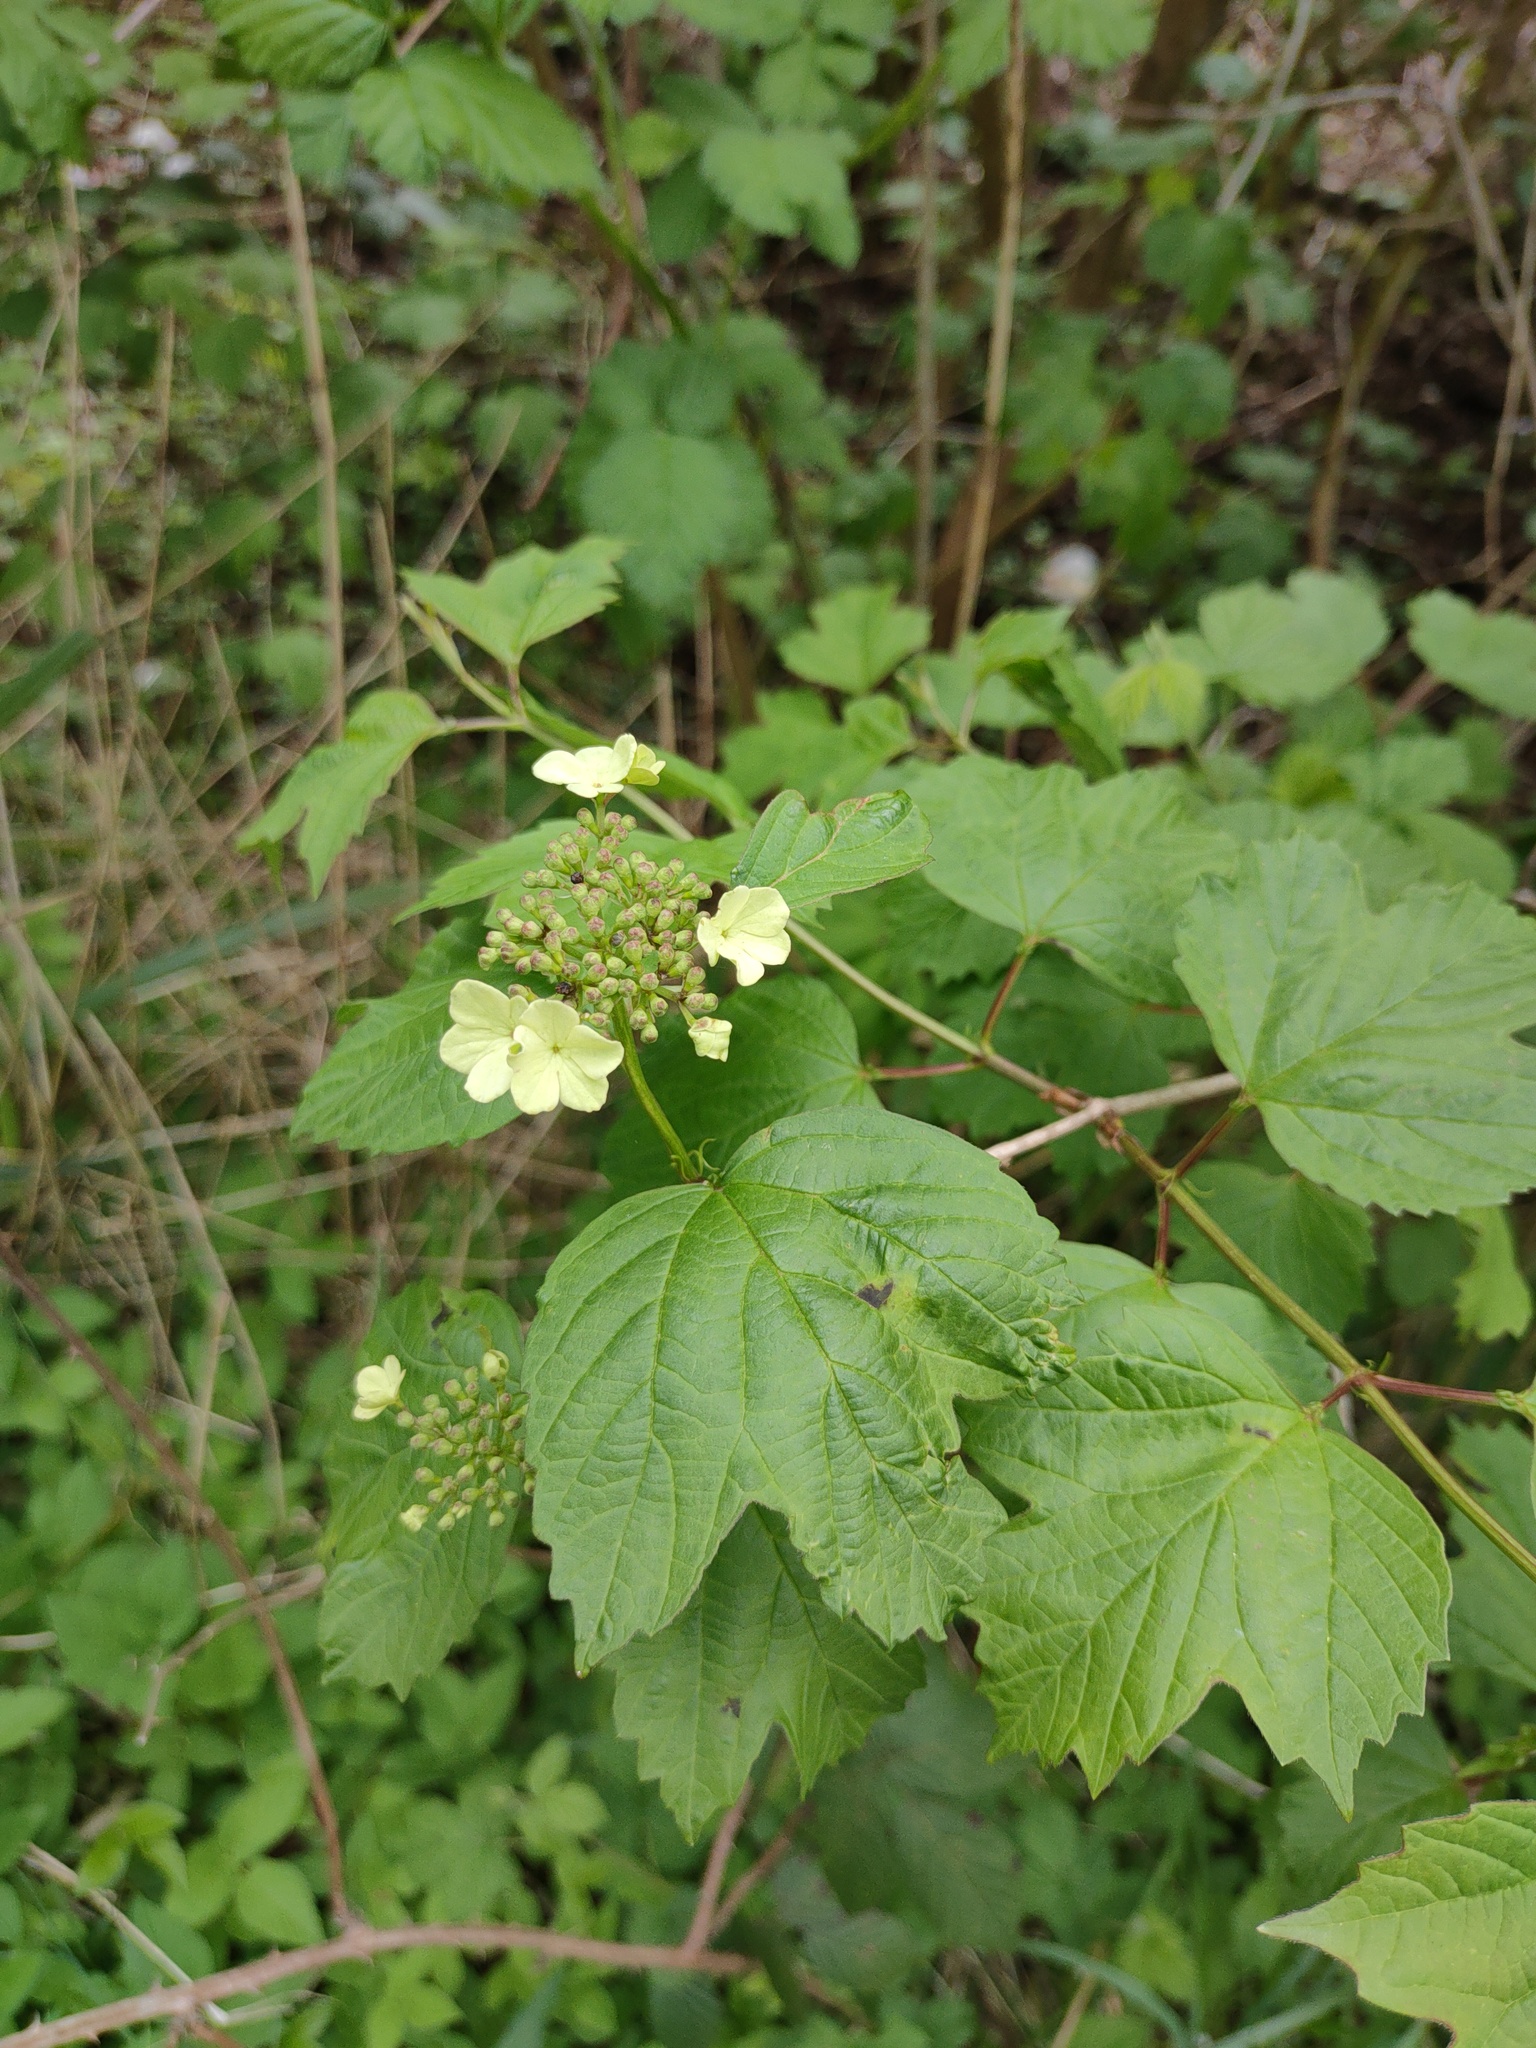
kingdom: Plantae
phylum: Tracheophyta
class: Magnoliopsida
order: Dipsacales
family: Viburnaceae
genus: Viburnum
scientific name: Viburnum opulus
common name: Guelder-rose
